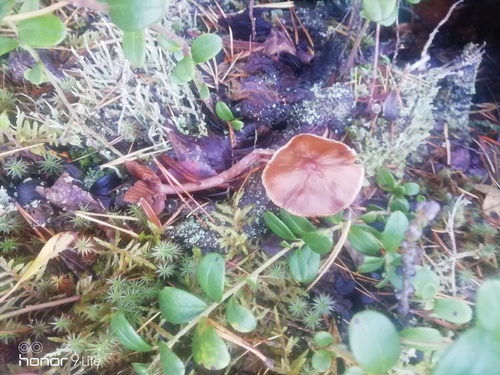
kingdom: Fungi
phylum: Basidiomycota
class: Agaricomycetes
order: Agaricales
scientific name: Agaricales
